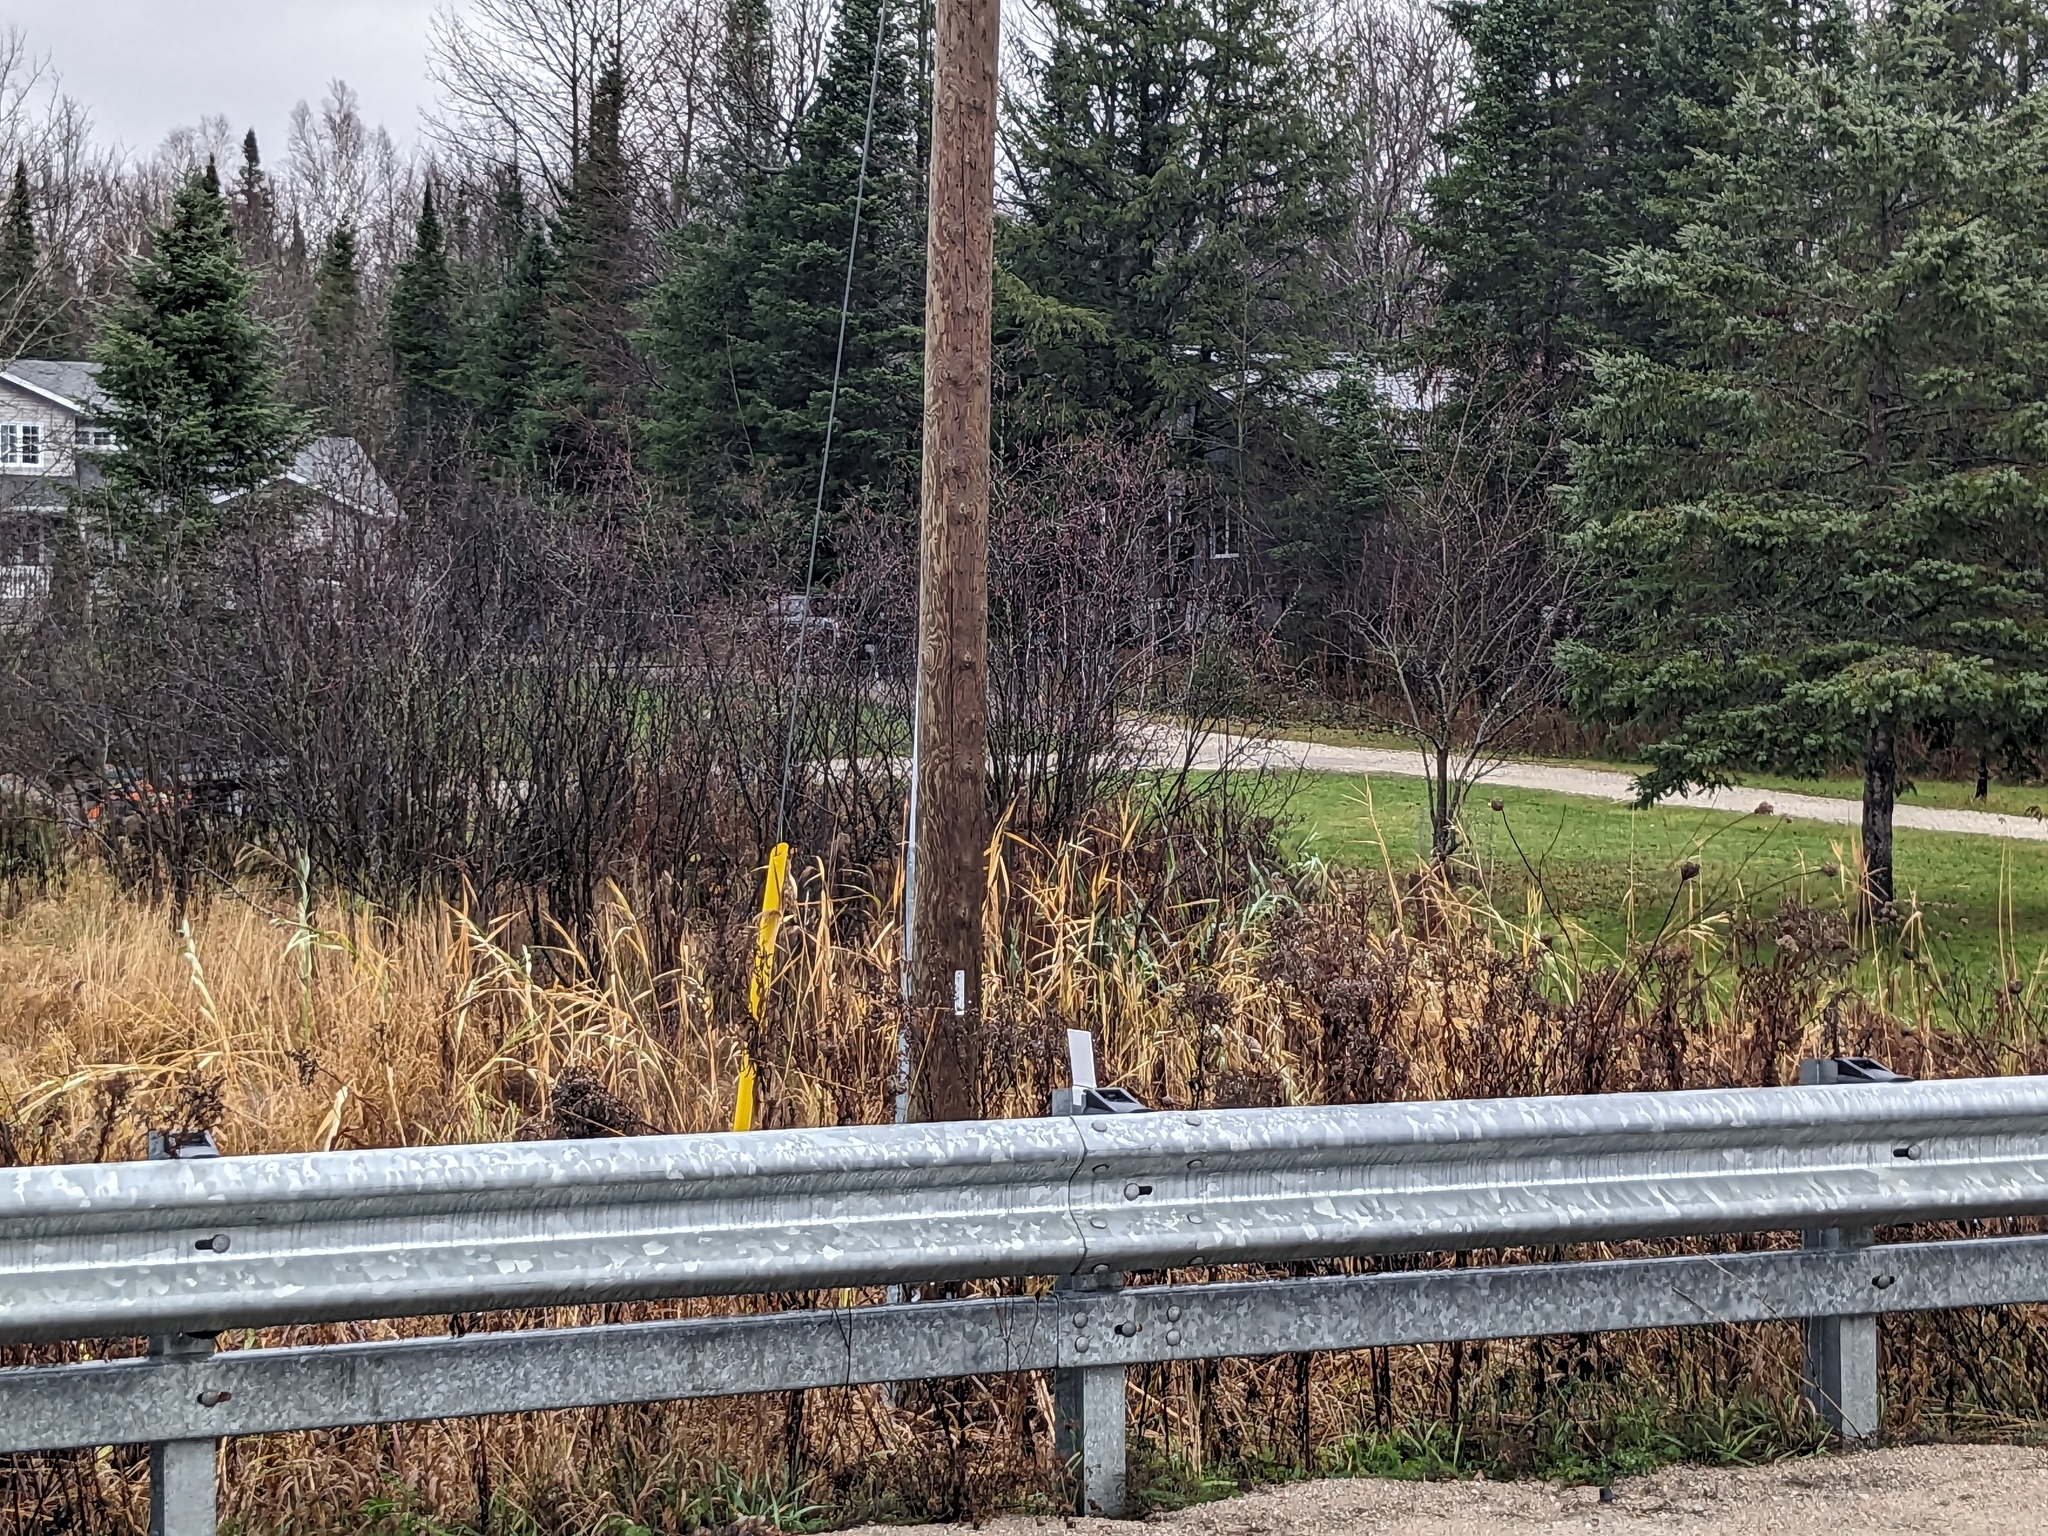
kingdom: Plantae
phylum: Tracheophyta
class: Liliopsida
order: Poales
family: Poaceae
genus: Phragmites
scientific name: Phragmites australis
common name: Common reed
